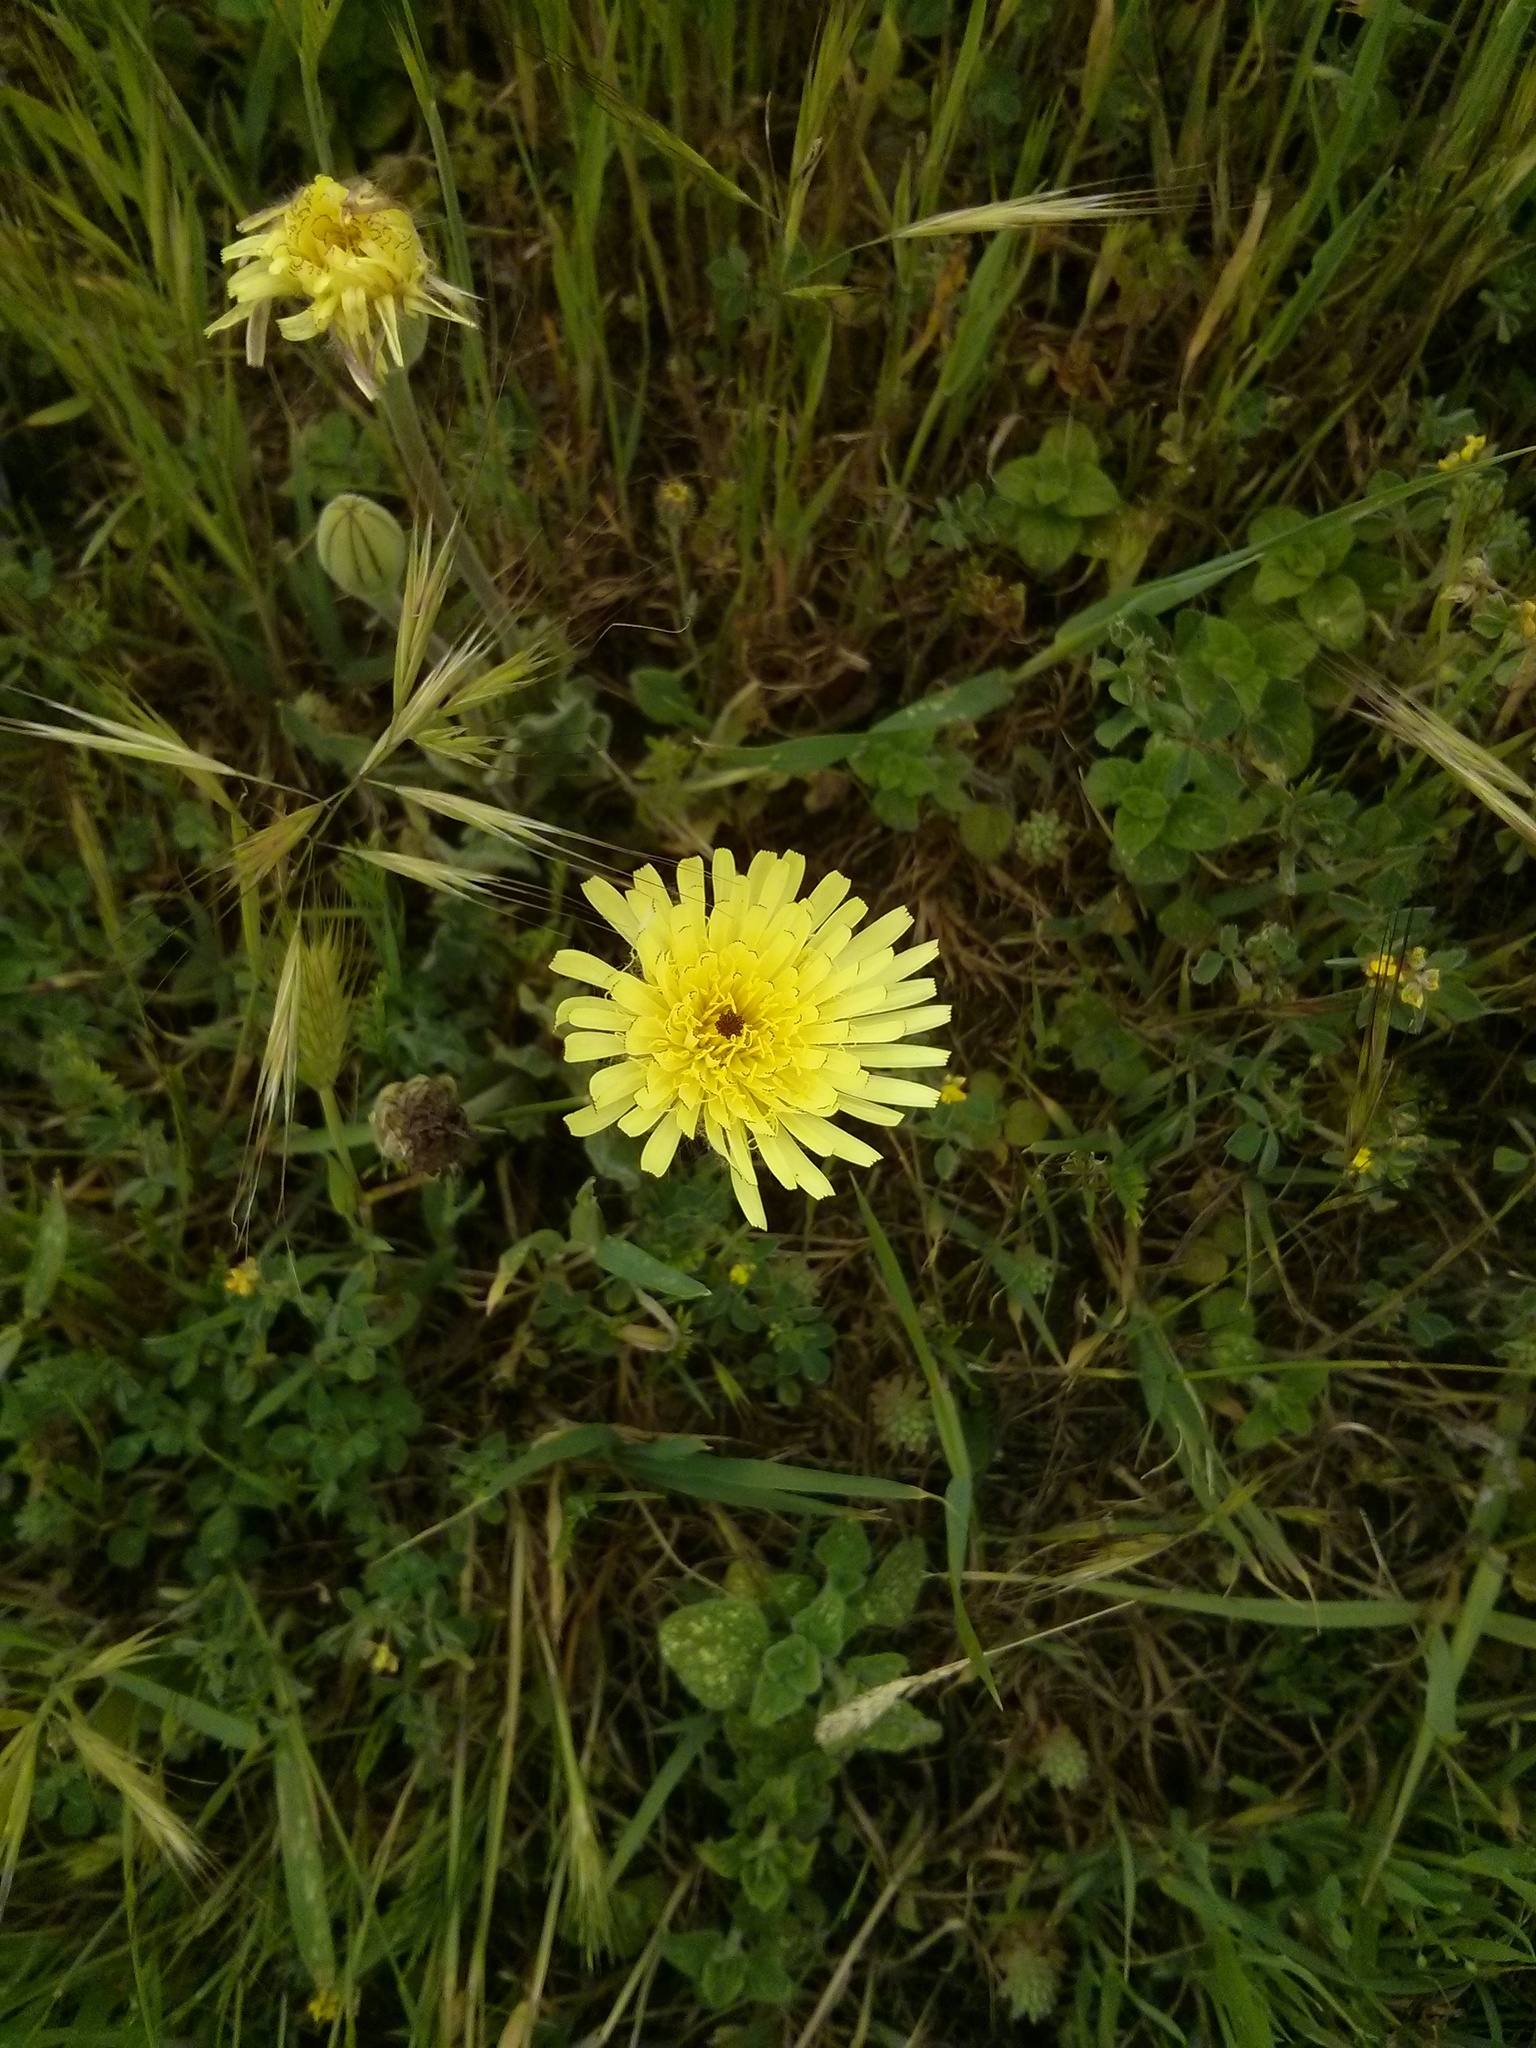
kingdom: Plantae
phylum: Tracheophyta
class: Magnoliopsida
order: Asterales
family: Asteraceae
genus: Urospermum
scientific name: Urospermum dalechampii
